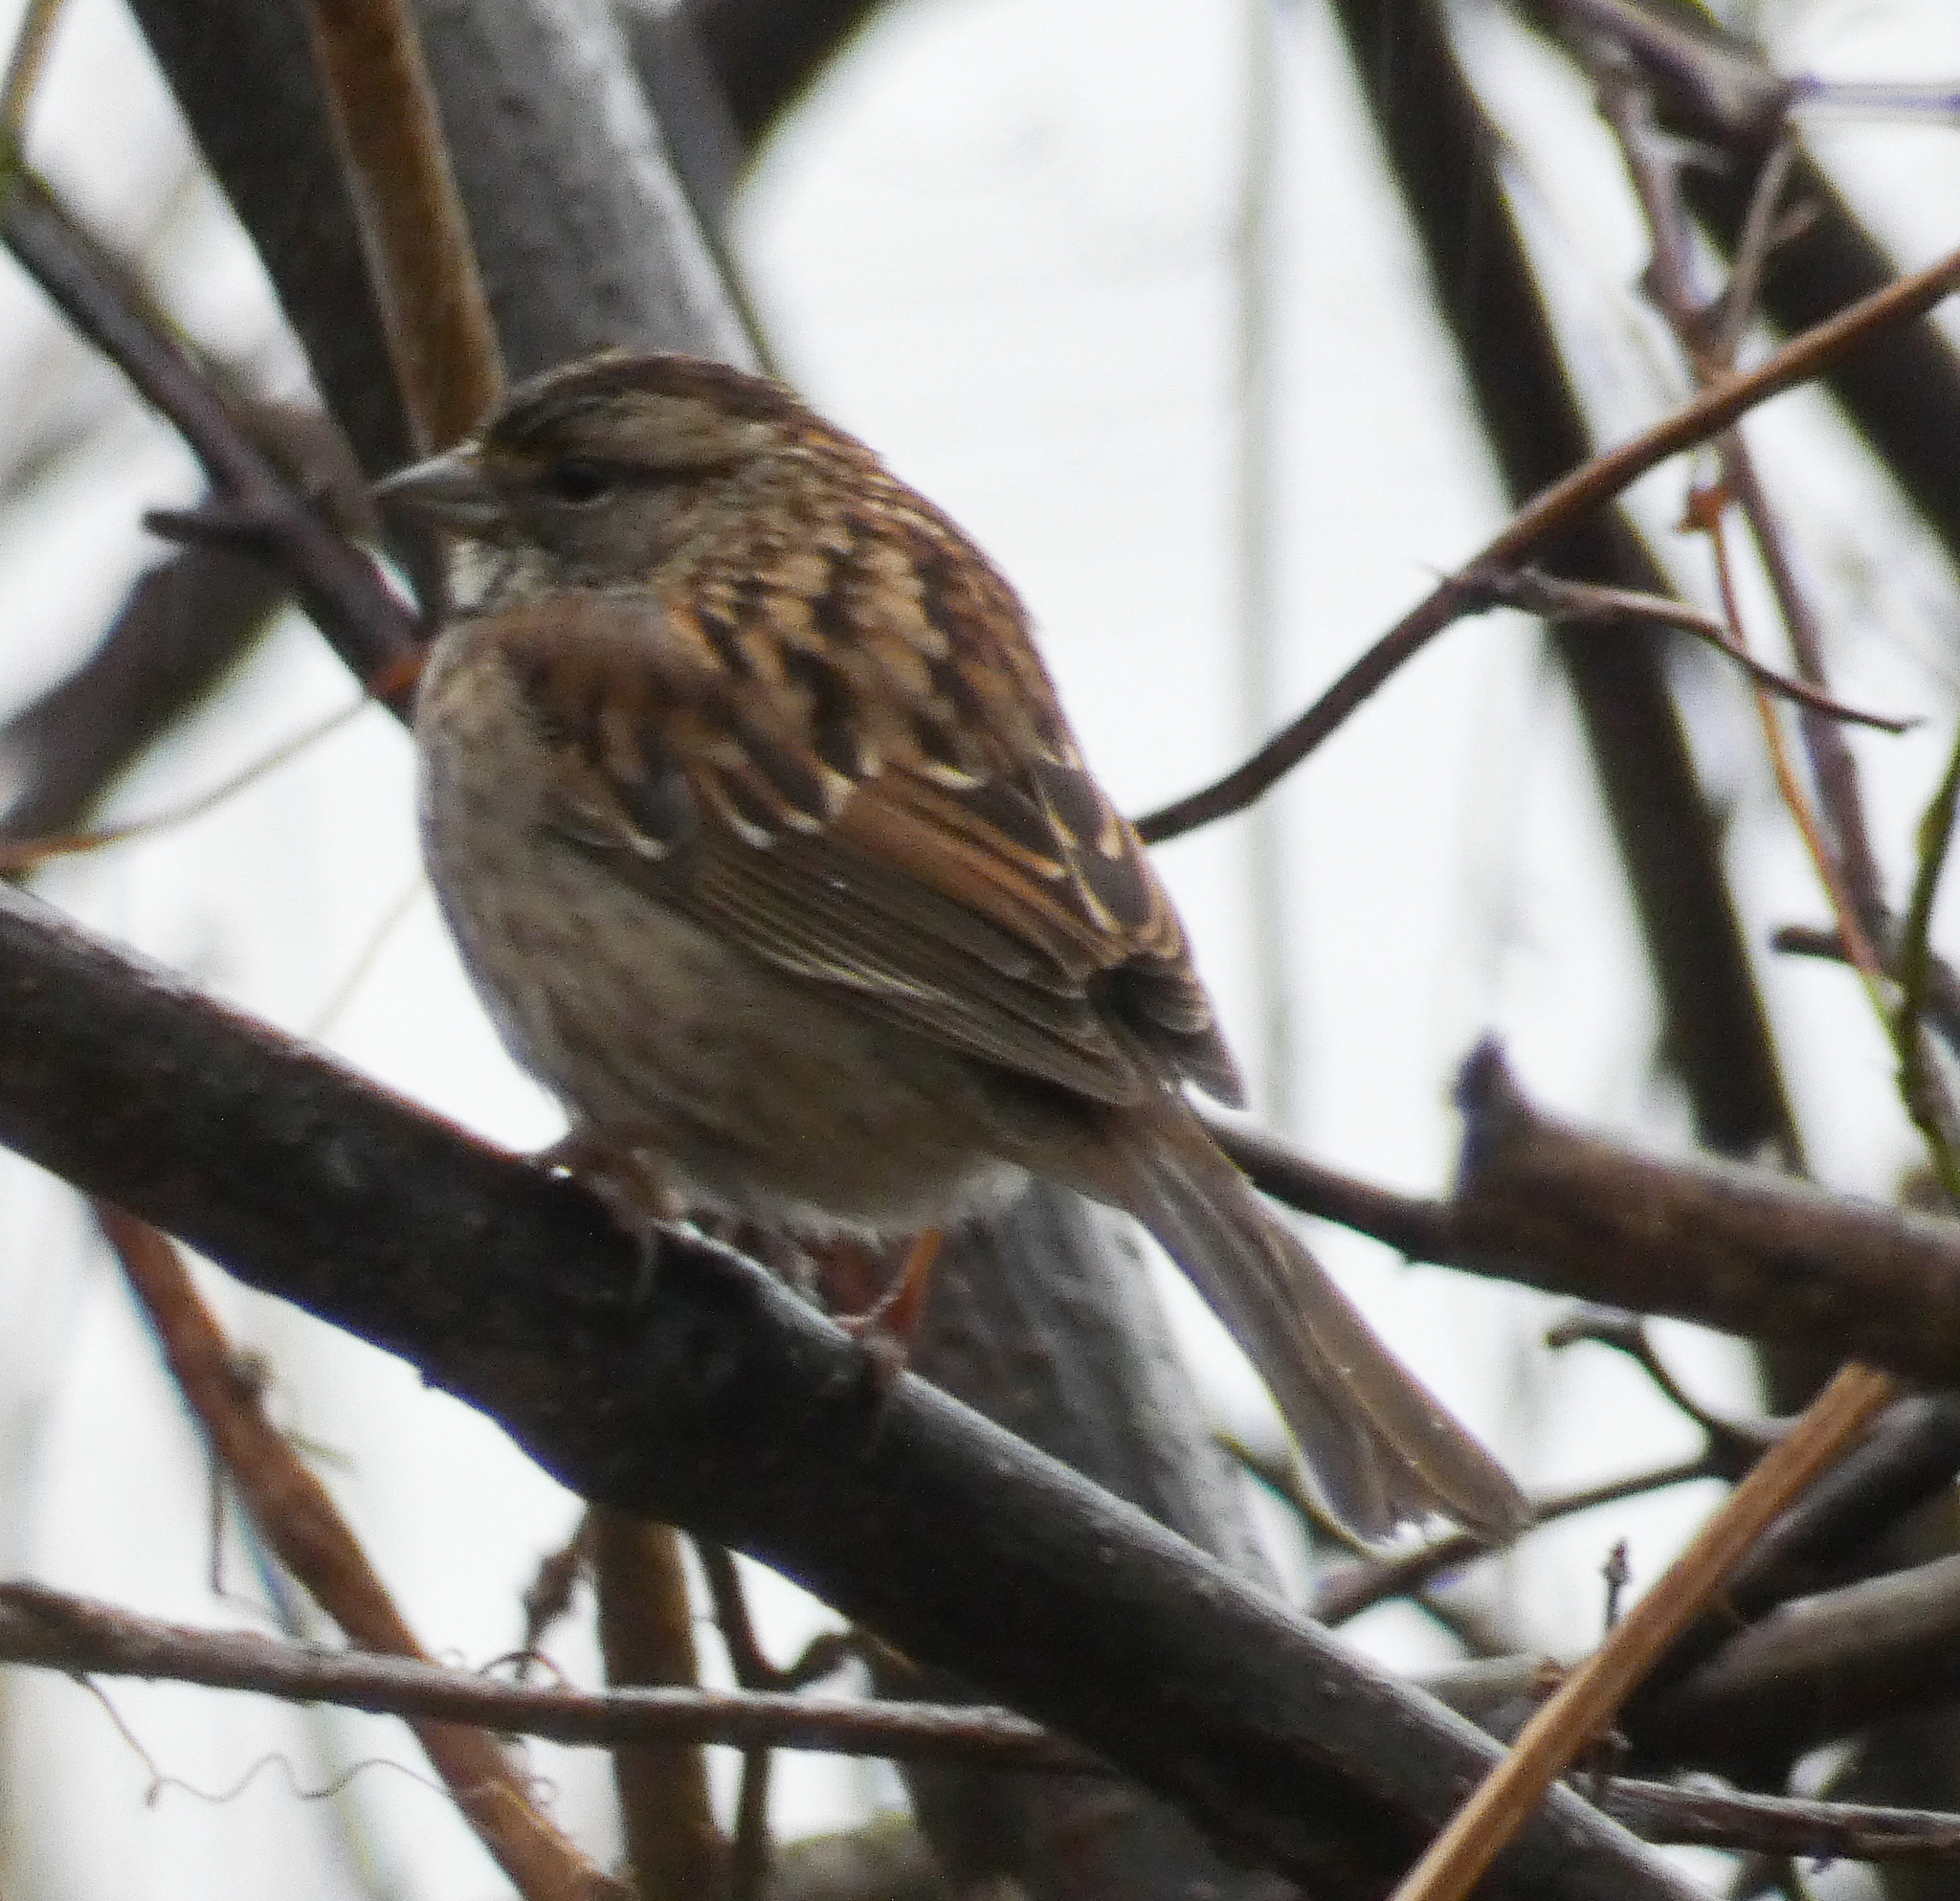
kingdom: Animalia
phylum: Chordata
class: Aves
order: Passeriformes
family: Passerellidae
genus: Zonotrichia
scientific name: Zonotrichia albicollis
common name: White-throated sparrow
